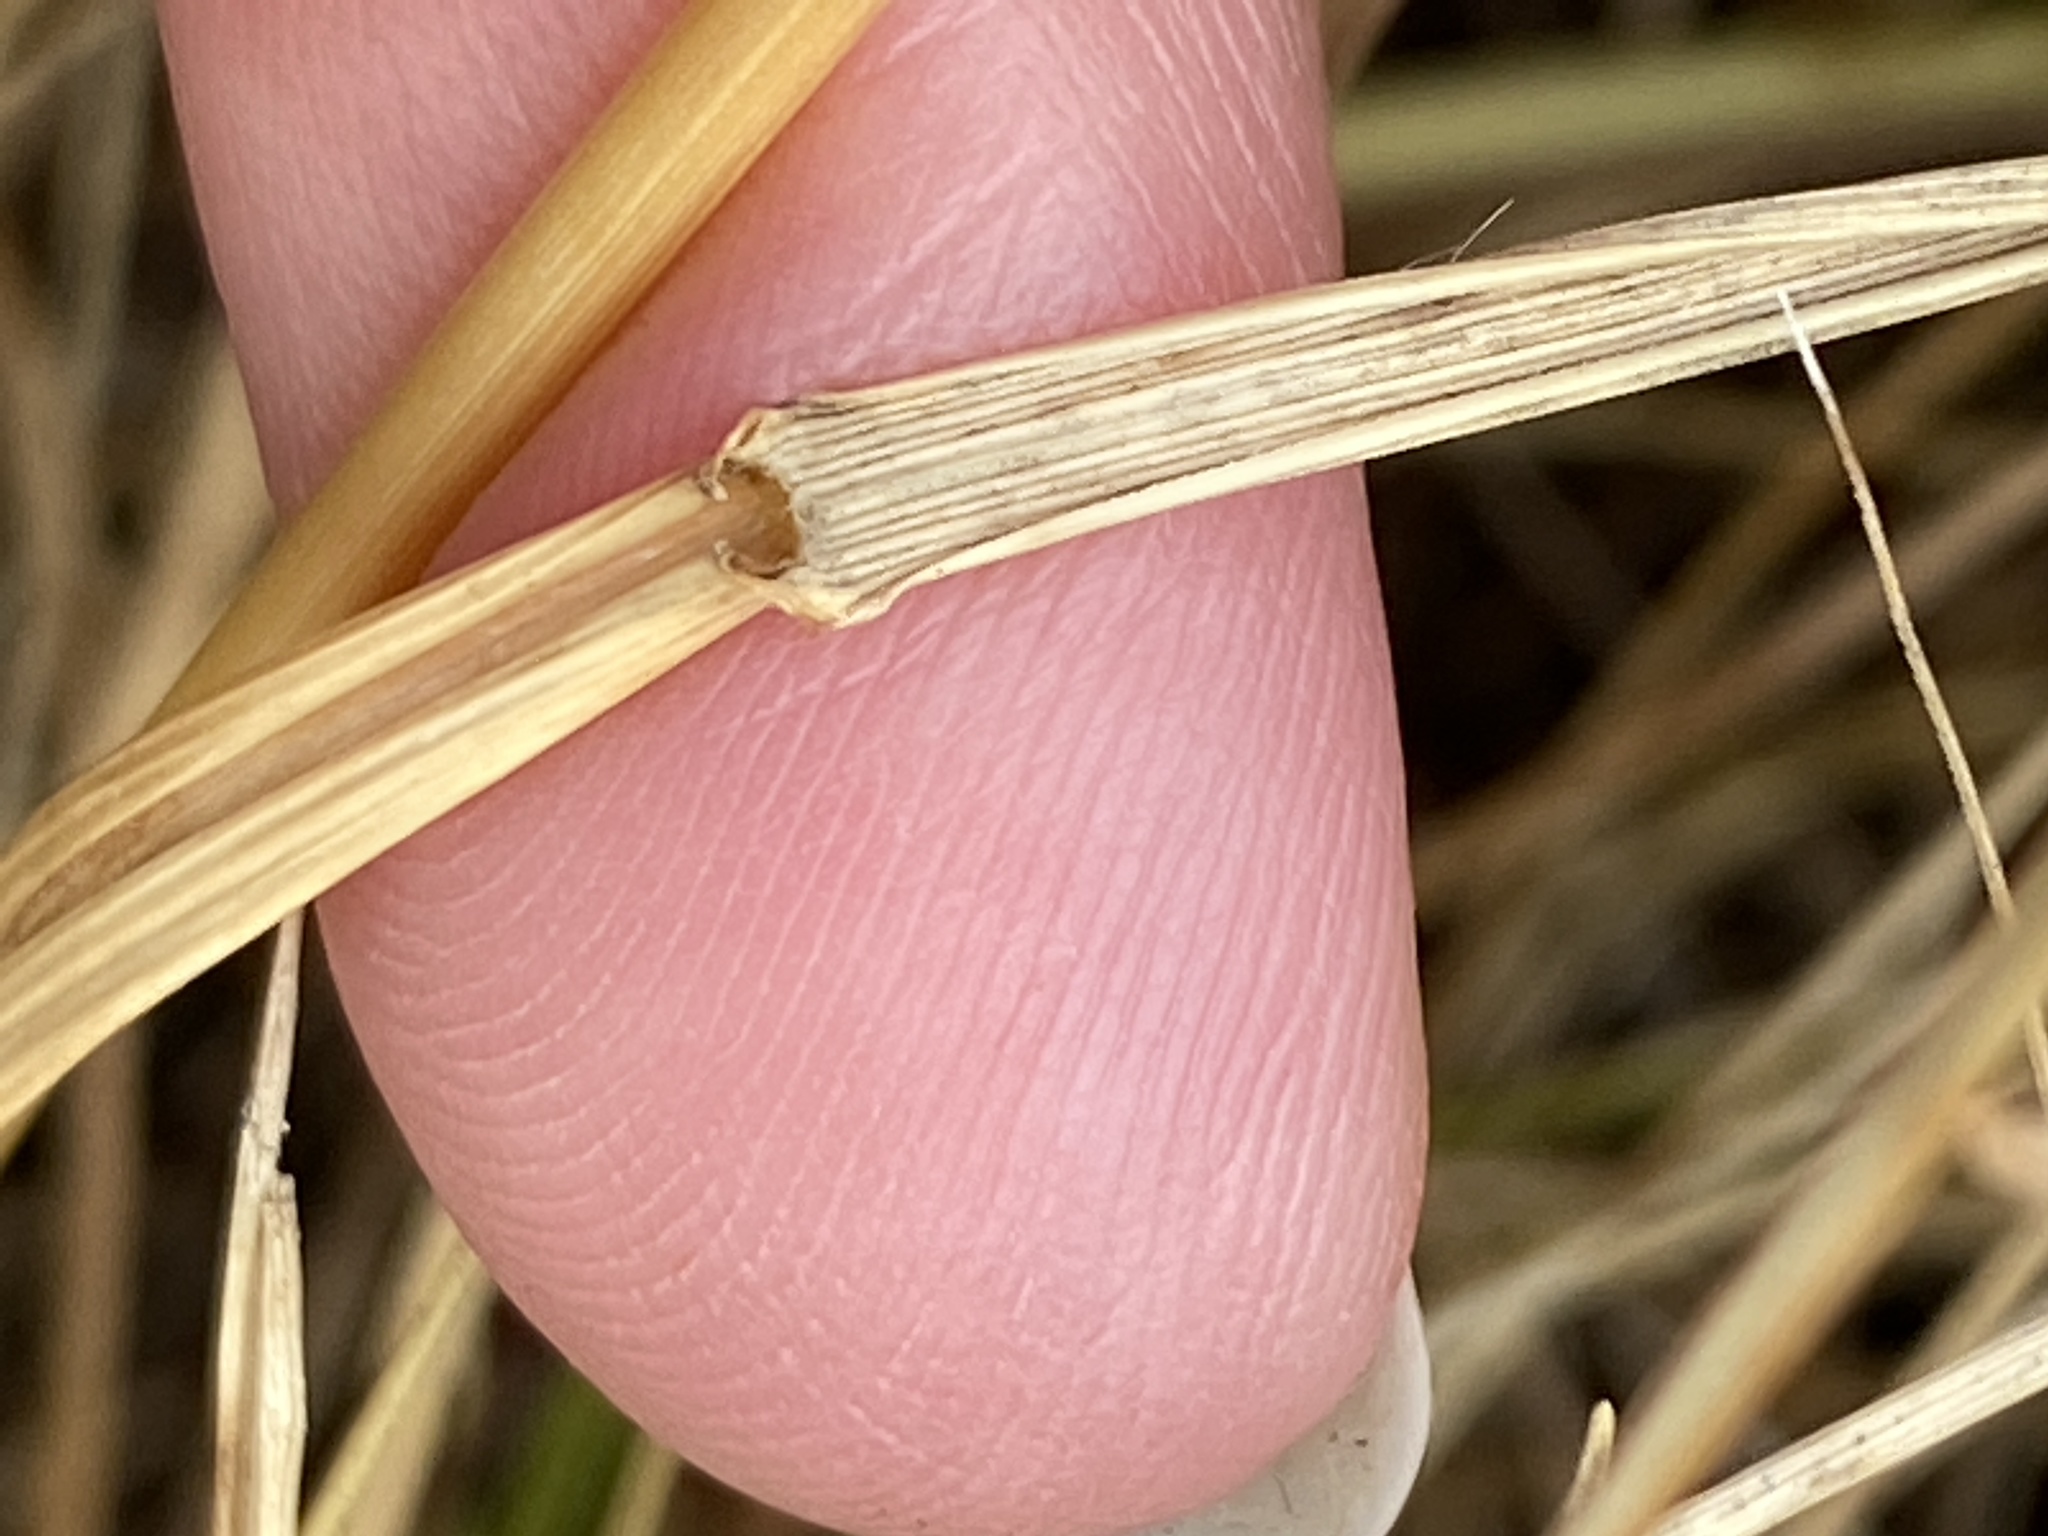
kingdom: Plantae
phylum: Tracheophyta
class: Liliopsida
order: Poales
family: Poaceae
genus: Elymus
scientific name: Elymus violaceus
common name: Arctic wheatgrass
